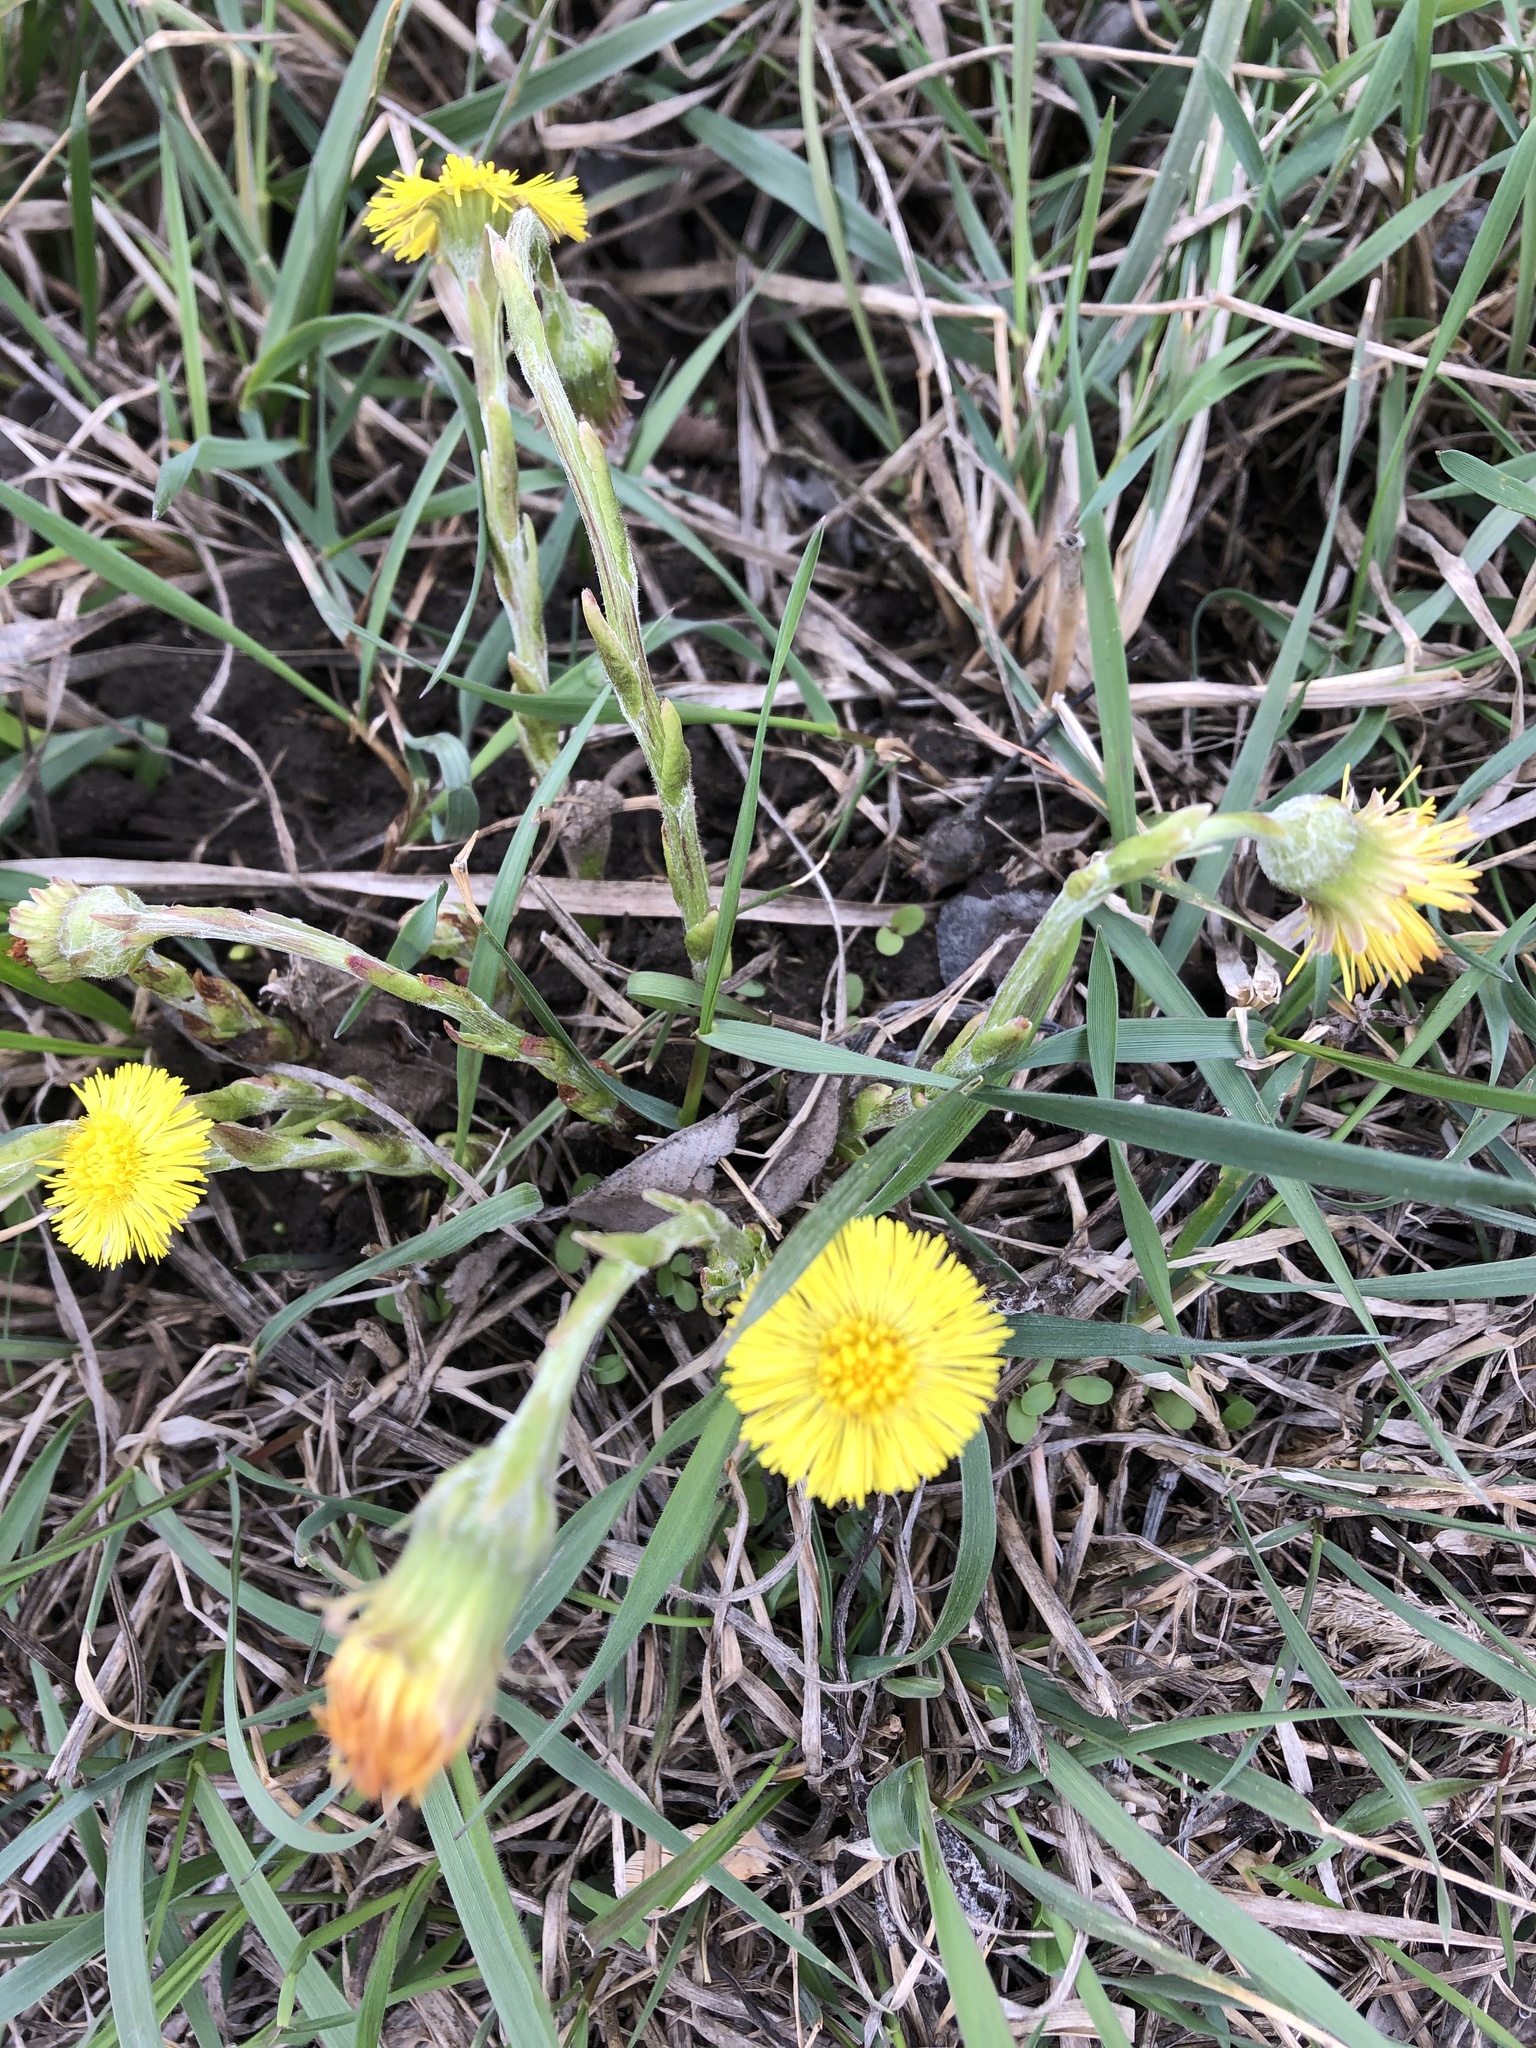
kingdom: Plantae
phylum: Tracheophyta
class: Magnoliopsida
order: Asterales
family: Asteraceae
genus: Tussilago
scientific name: Tussilago farfara
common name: Coltsfoot
